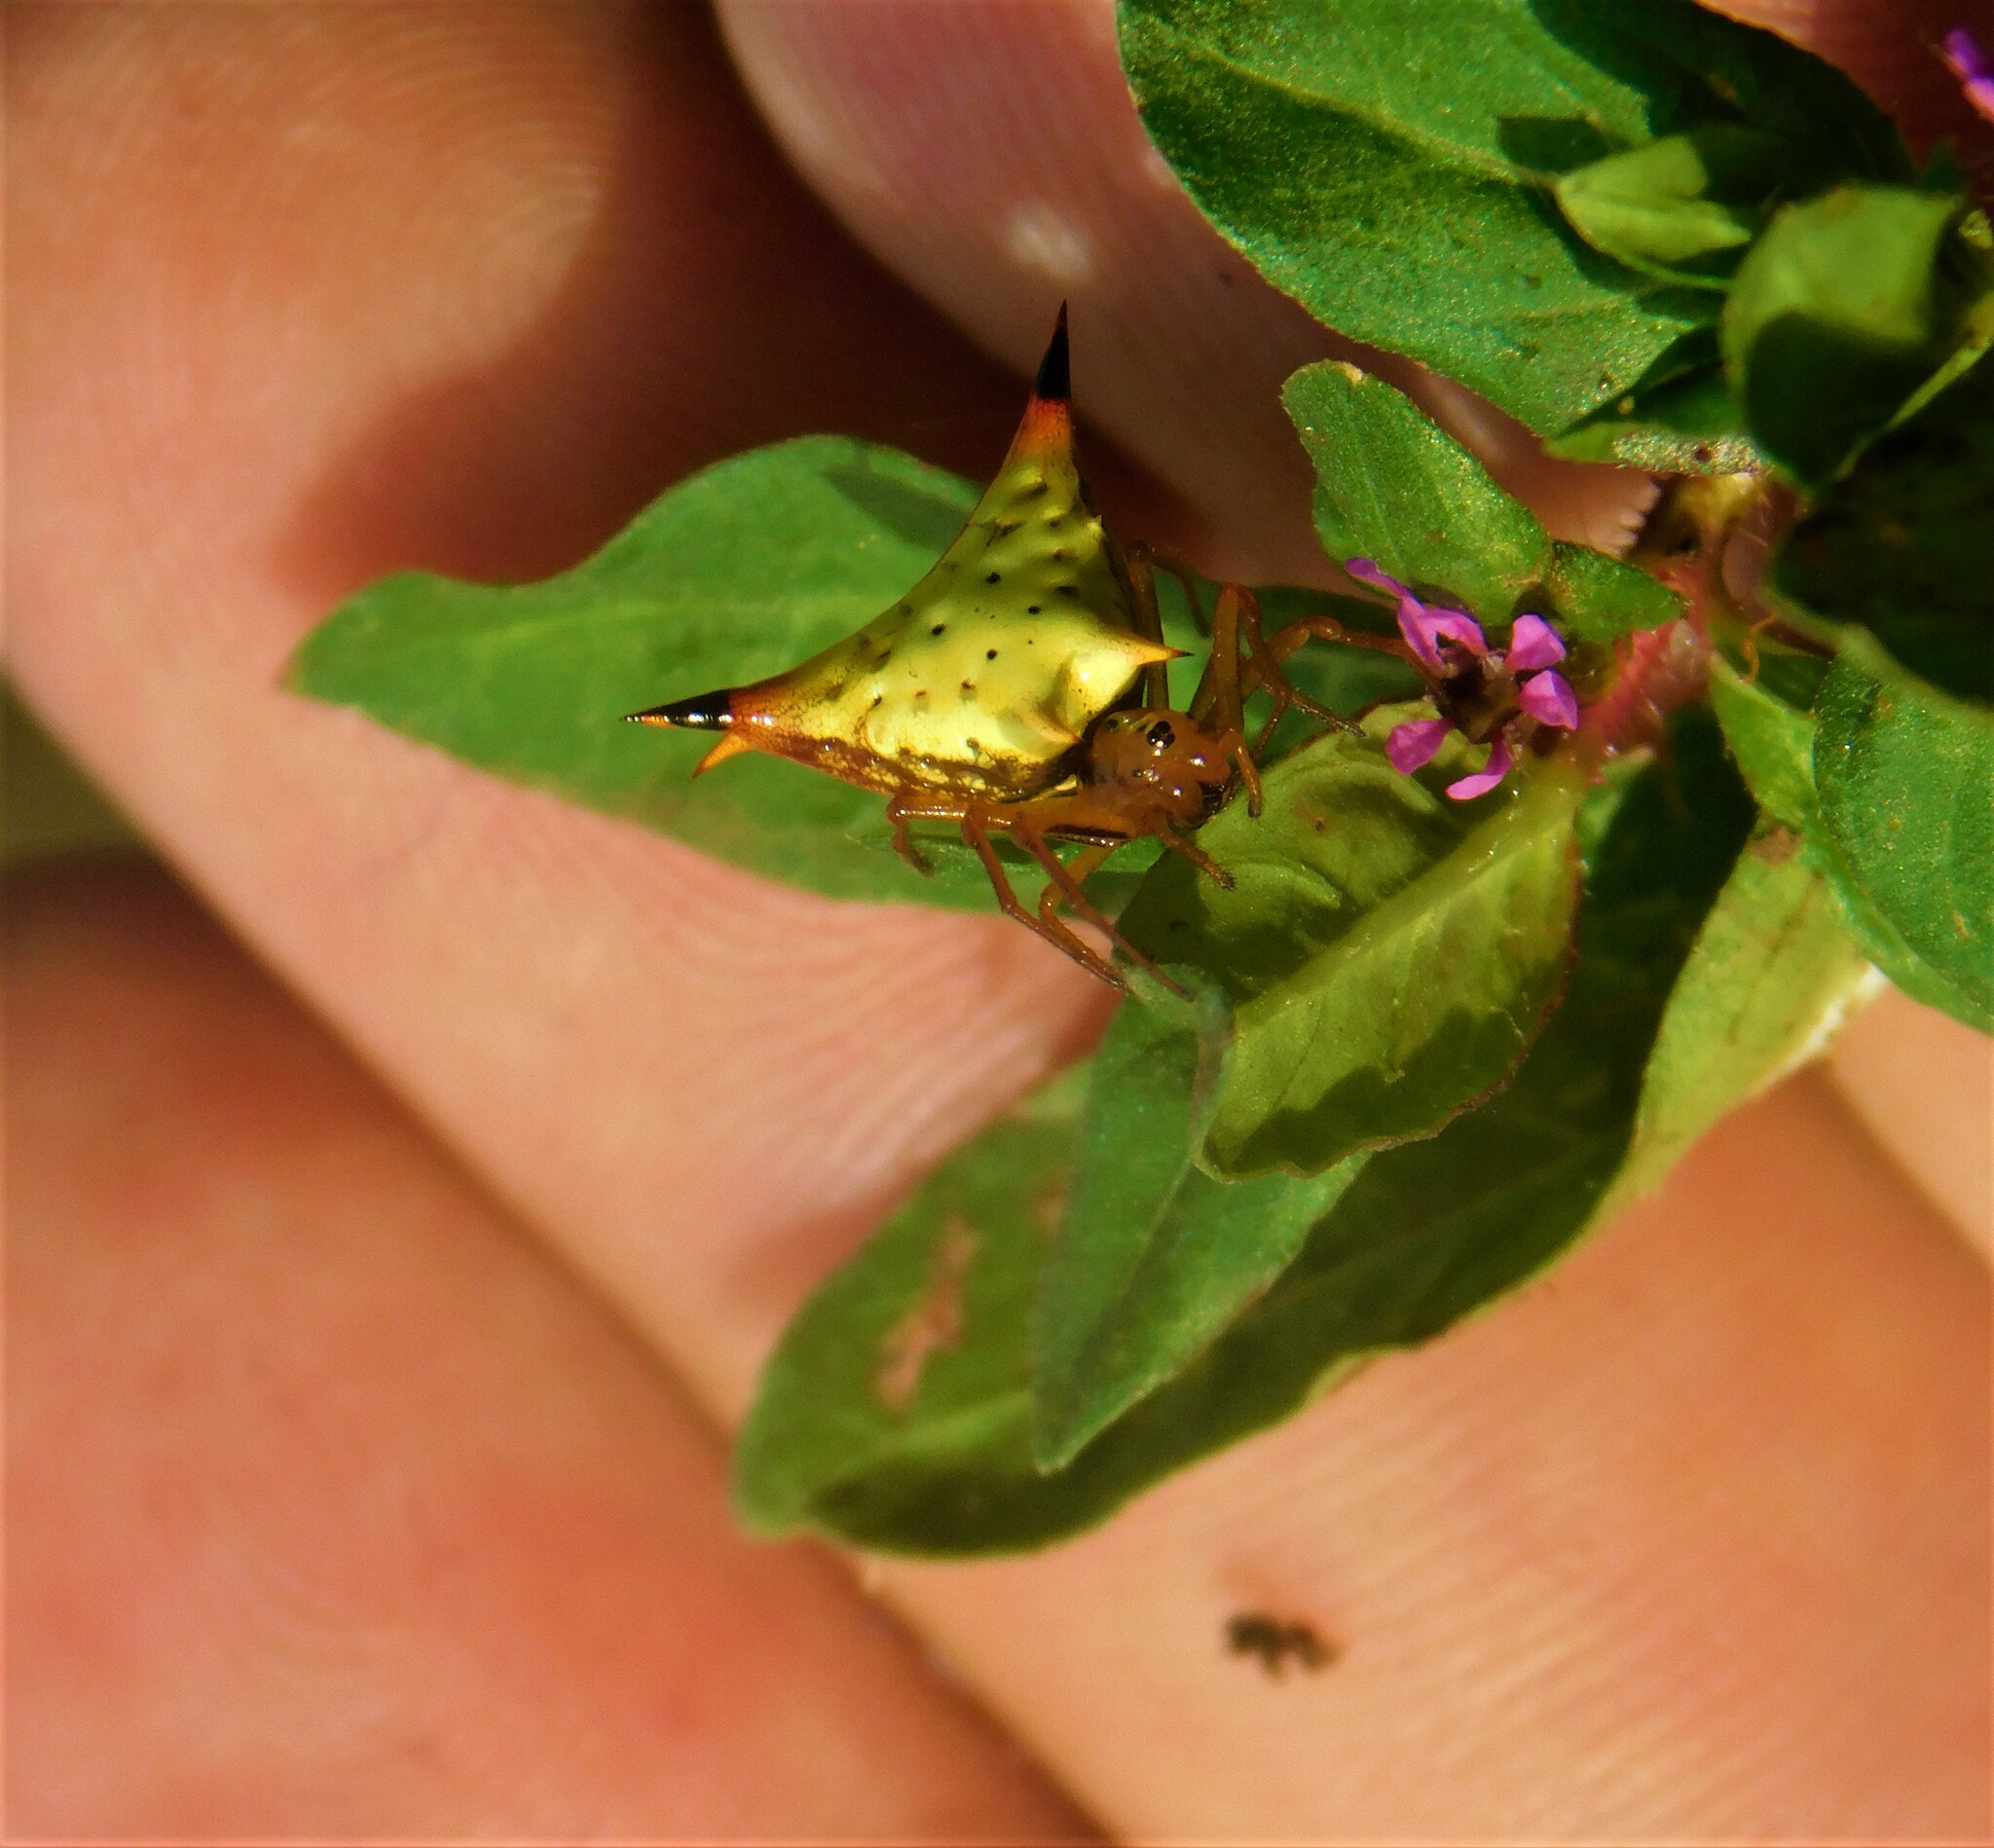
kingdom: Animalia
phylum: Arthropoda
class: Arachnida
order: Araneae
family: Araneidae
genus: Micrathena
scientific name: Micrathena furcata
